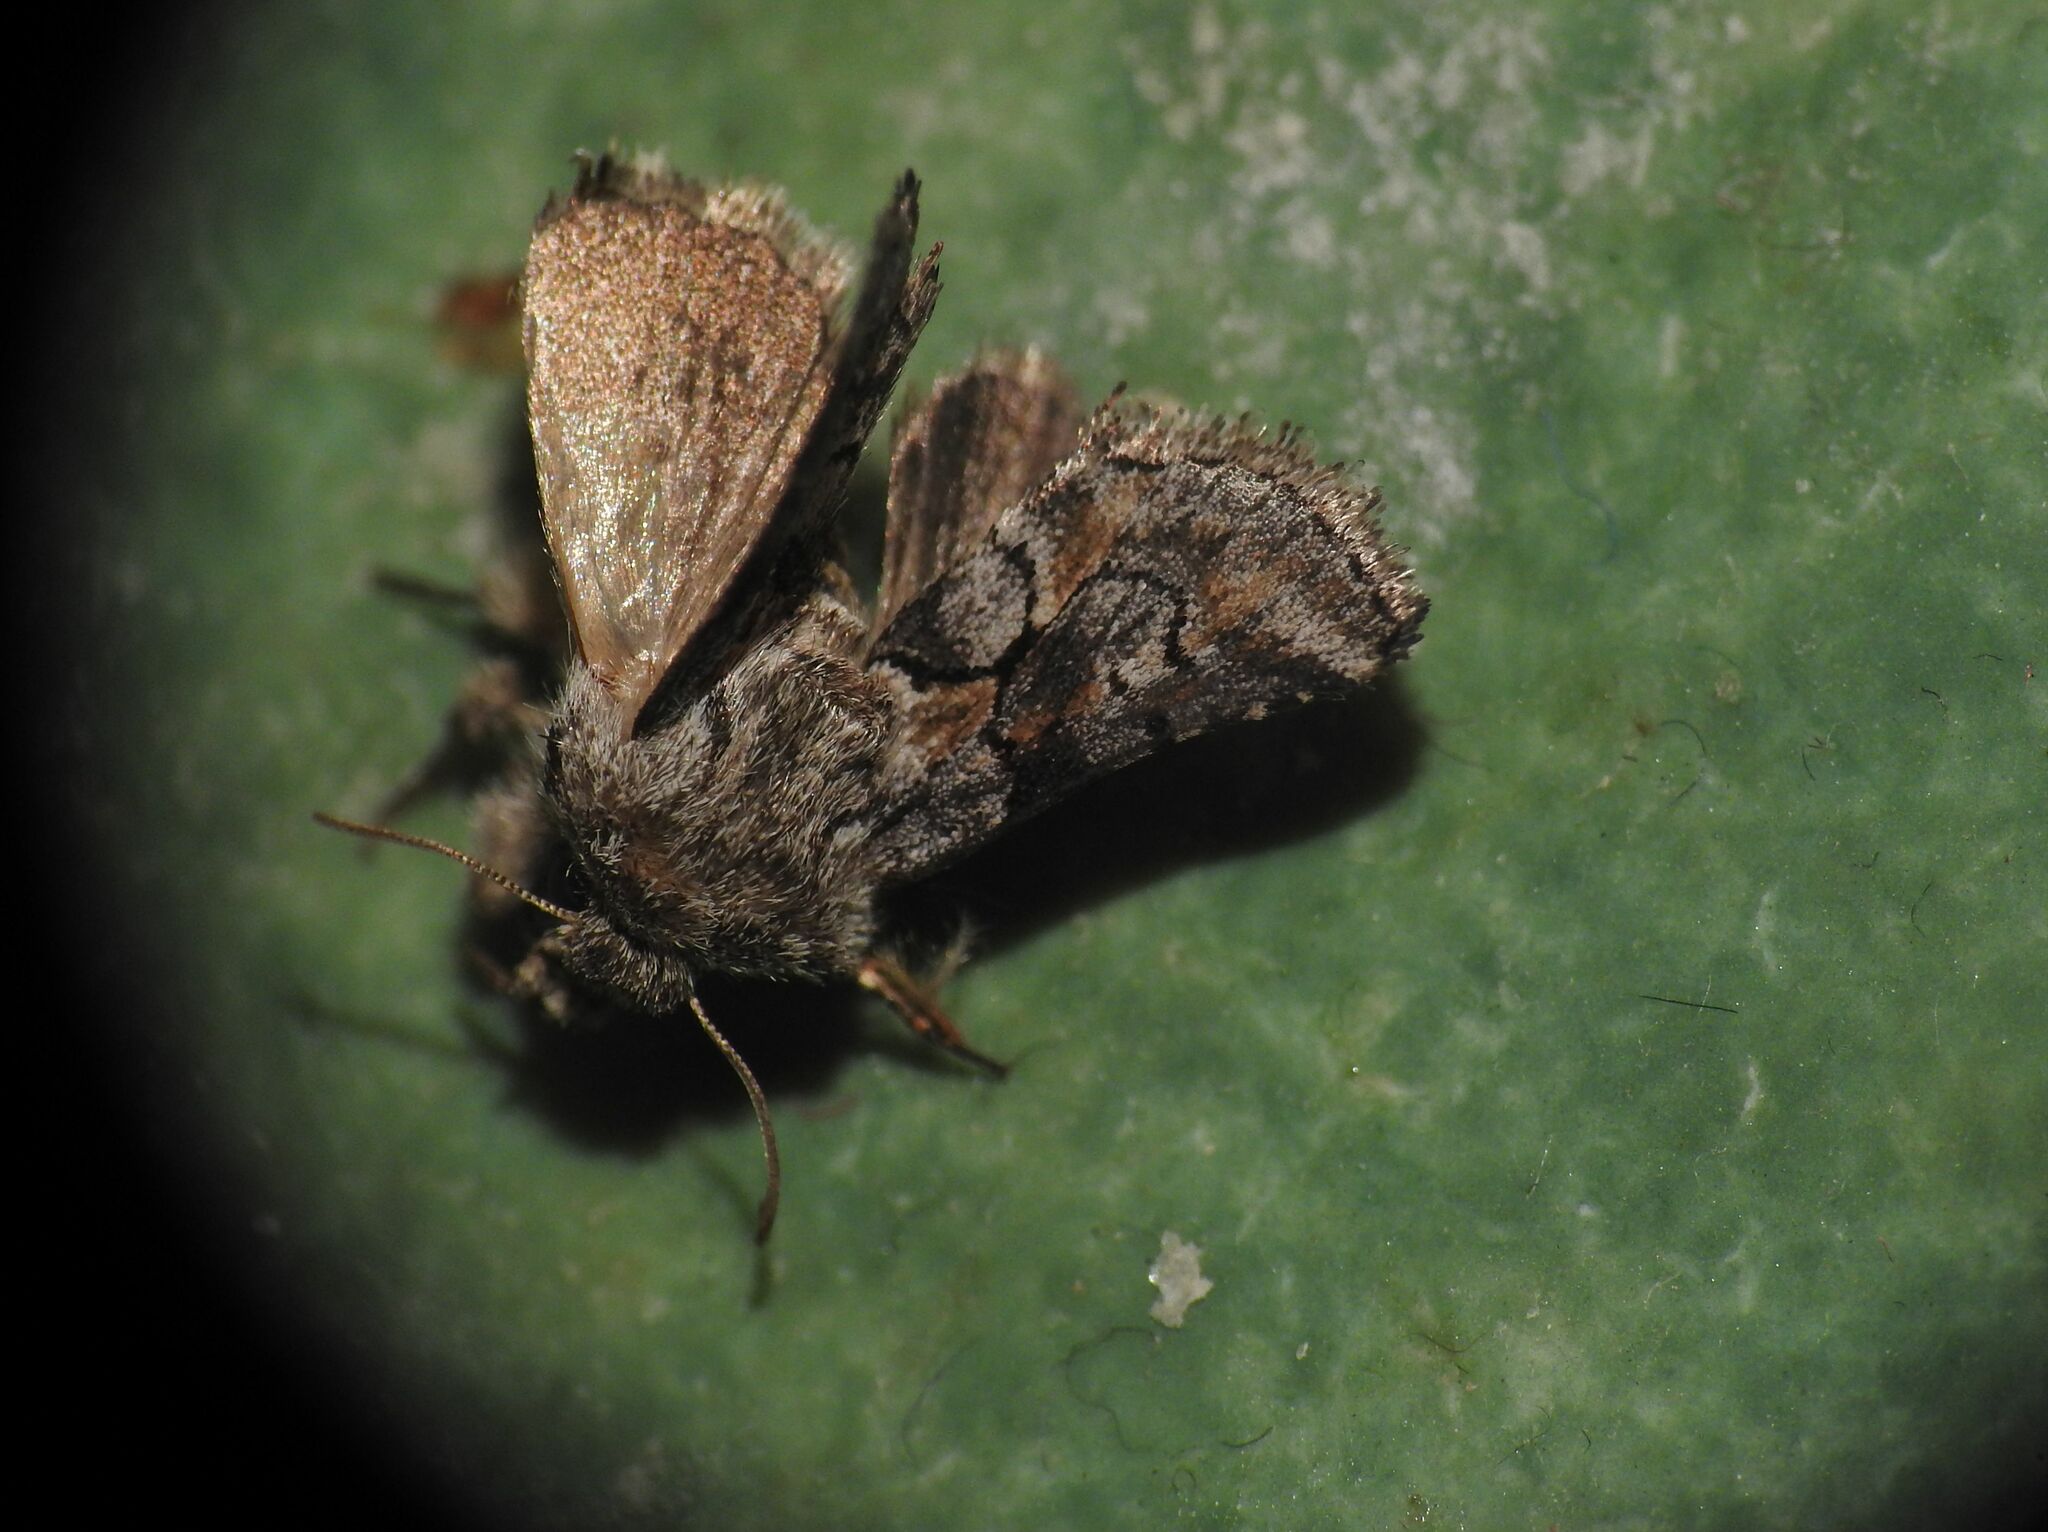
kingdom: Animalia
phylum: Arthropoda
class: Insecta
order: Lepidoptera
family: Noctuidae
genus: Cleonymia
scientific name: Cleonymia yvanii
